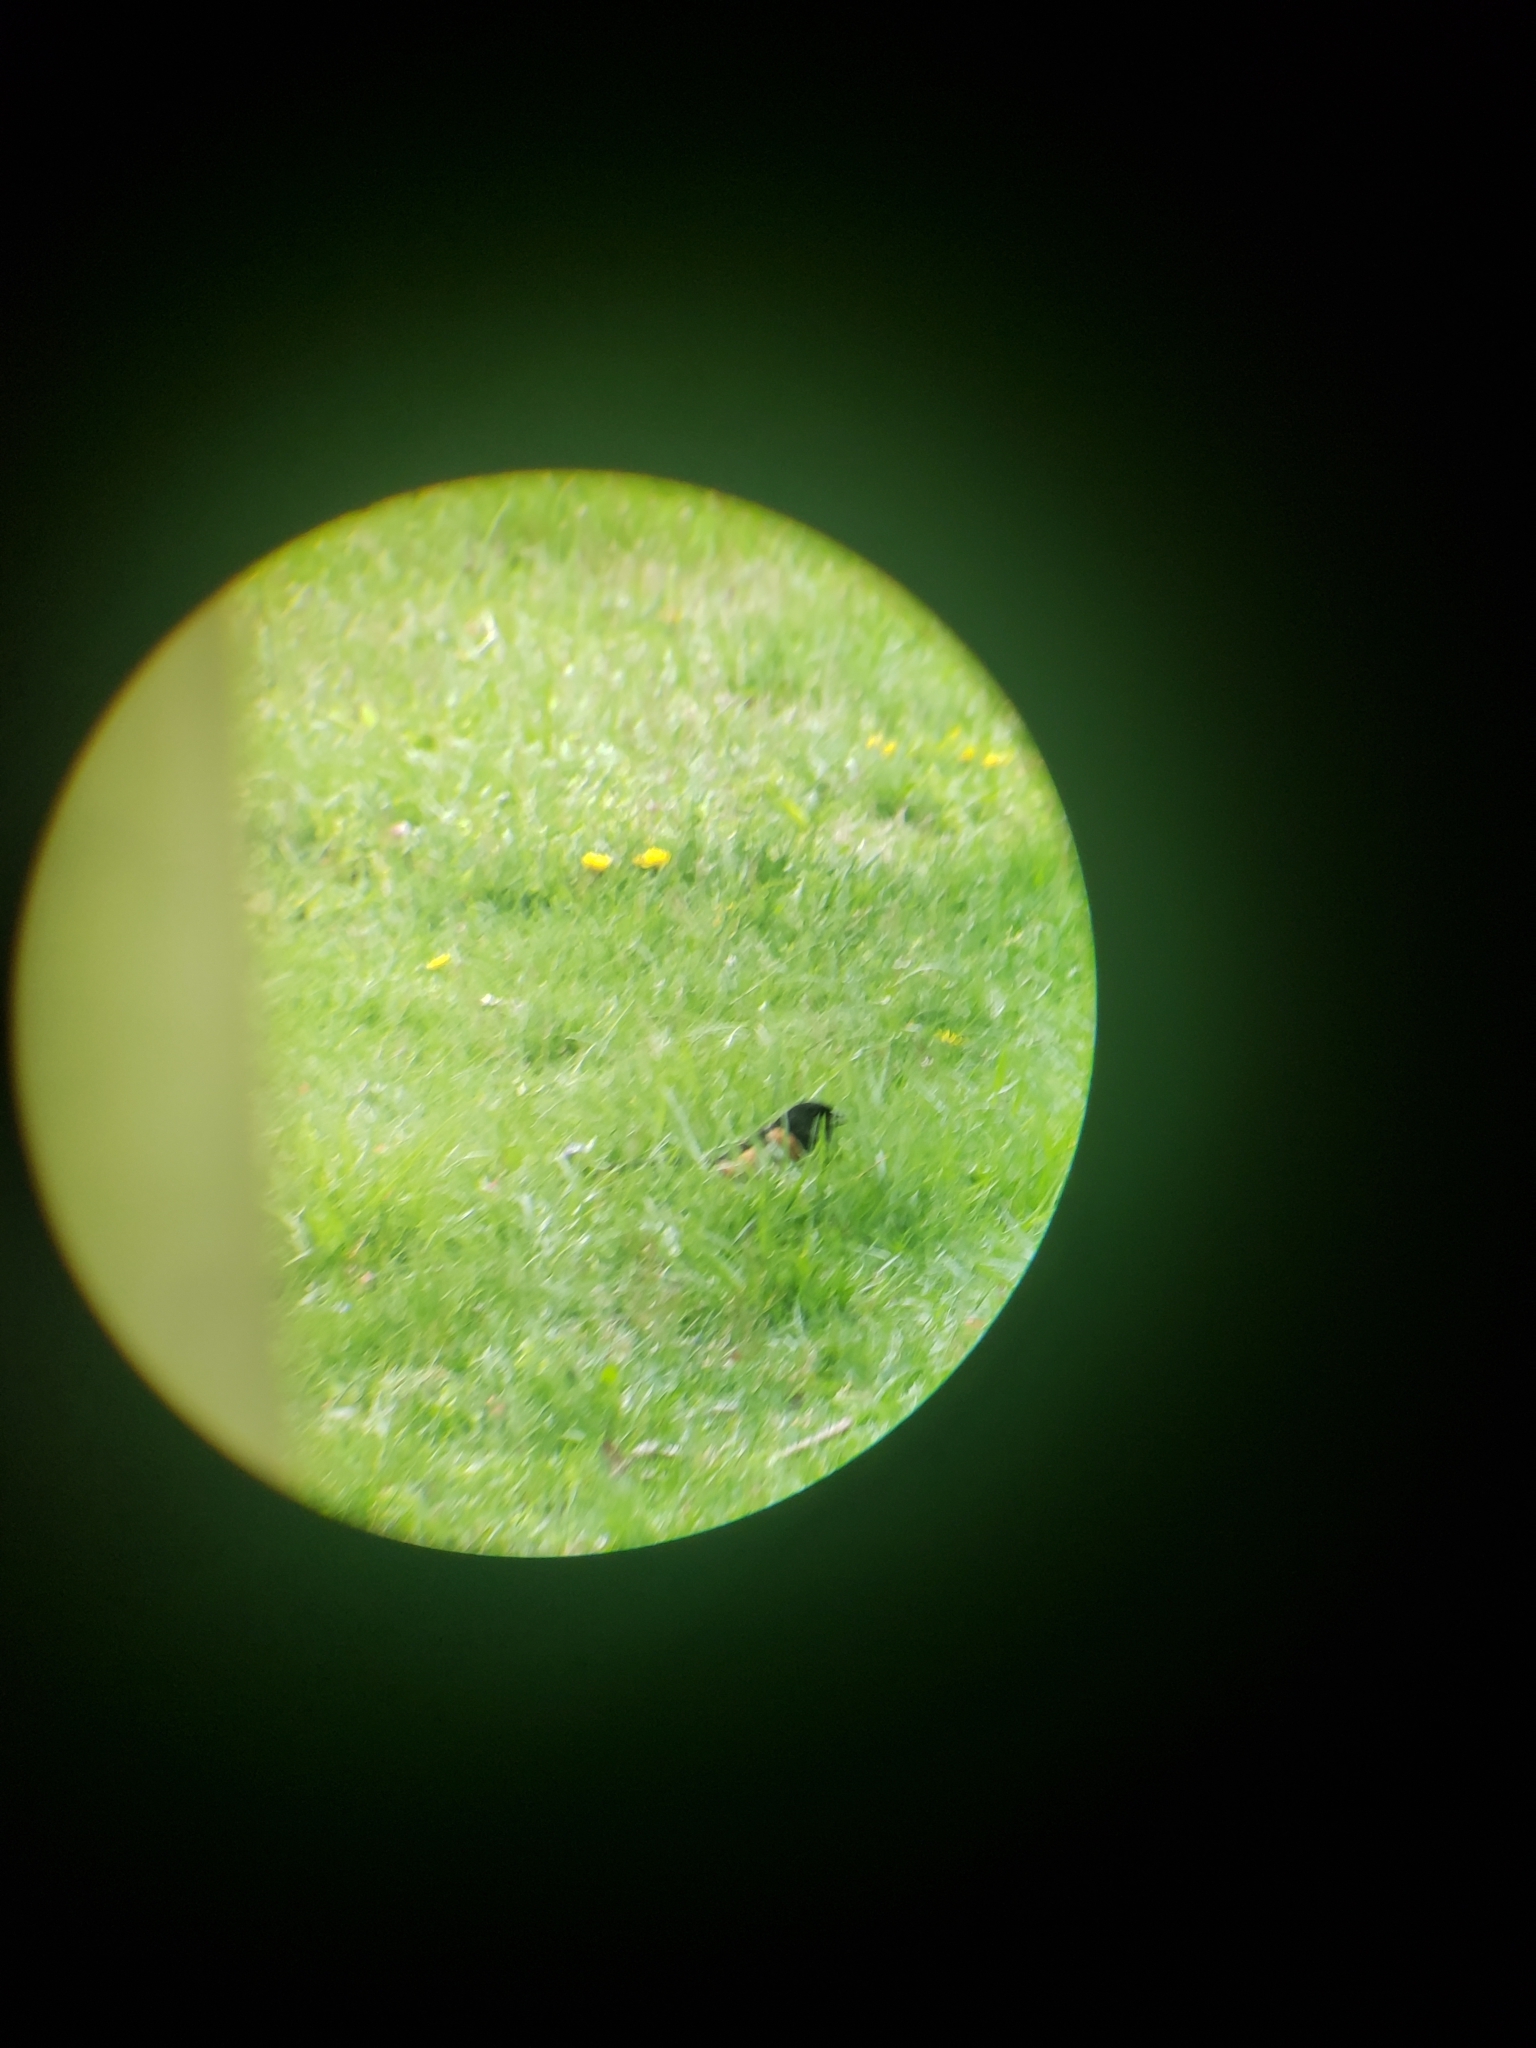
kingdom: Animalia
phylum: Chordata
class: Aves
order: Passeriformes
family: Passerellidae
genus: Pipilo
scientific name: Pipilo erythrophthalmus
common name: Eastern towhee
